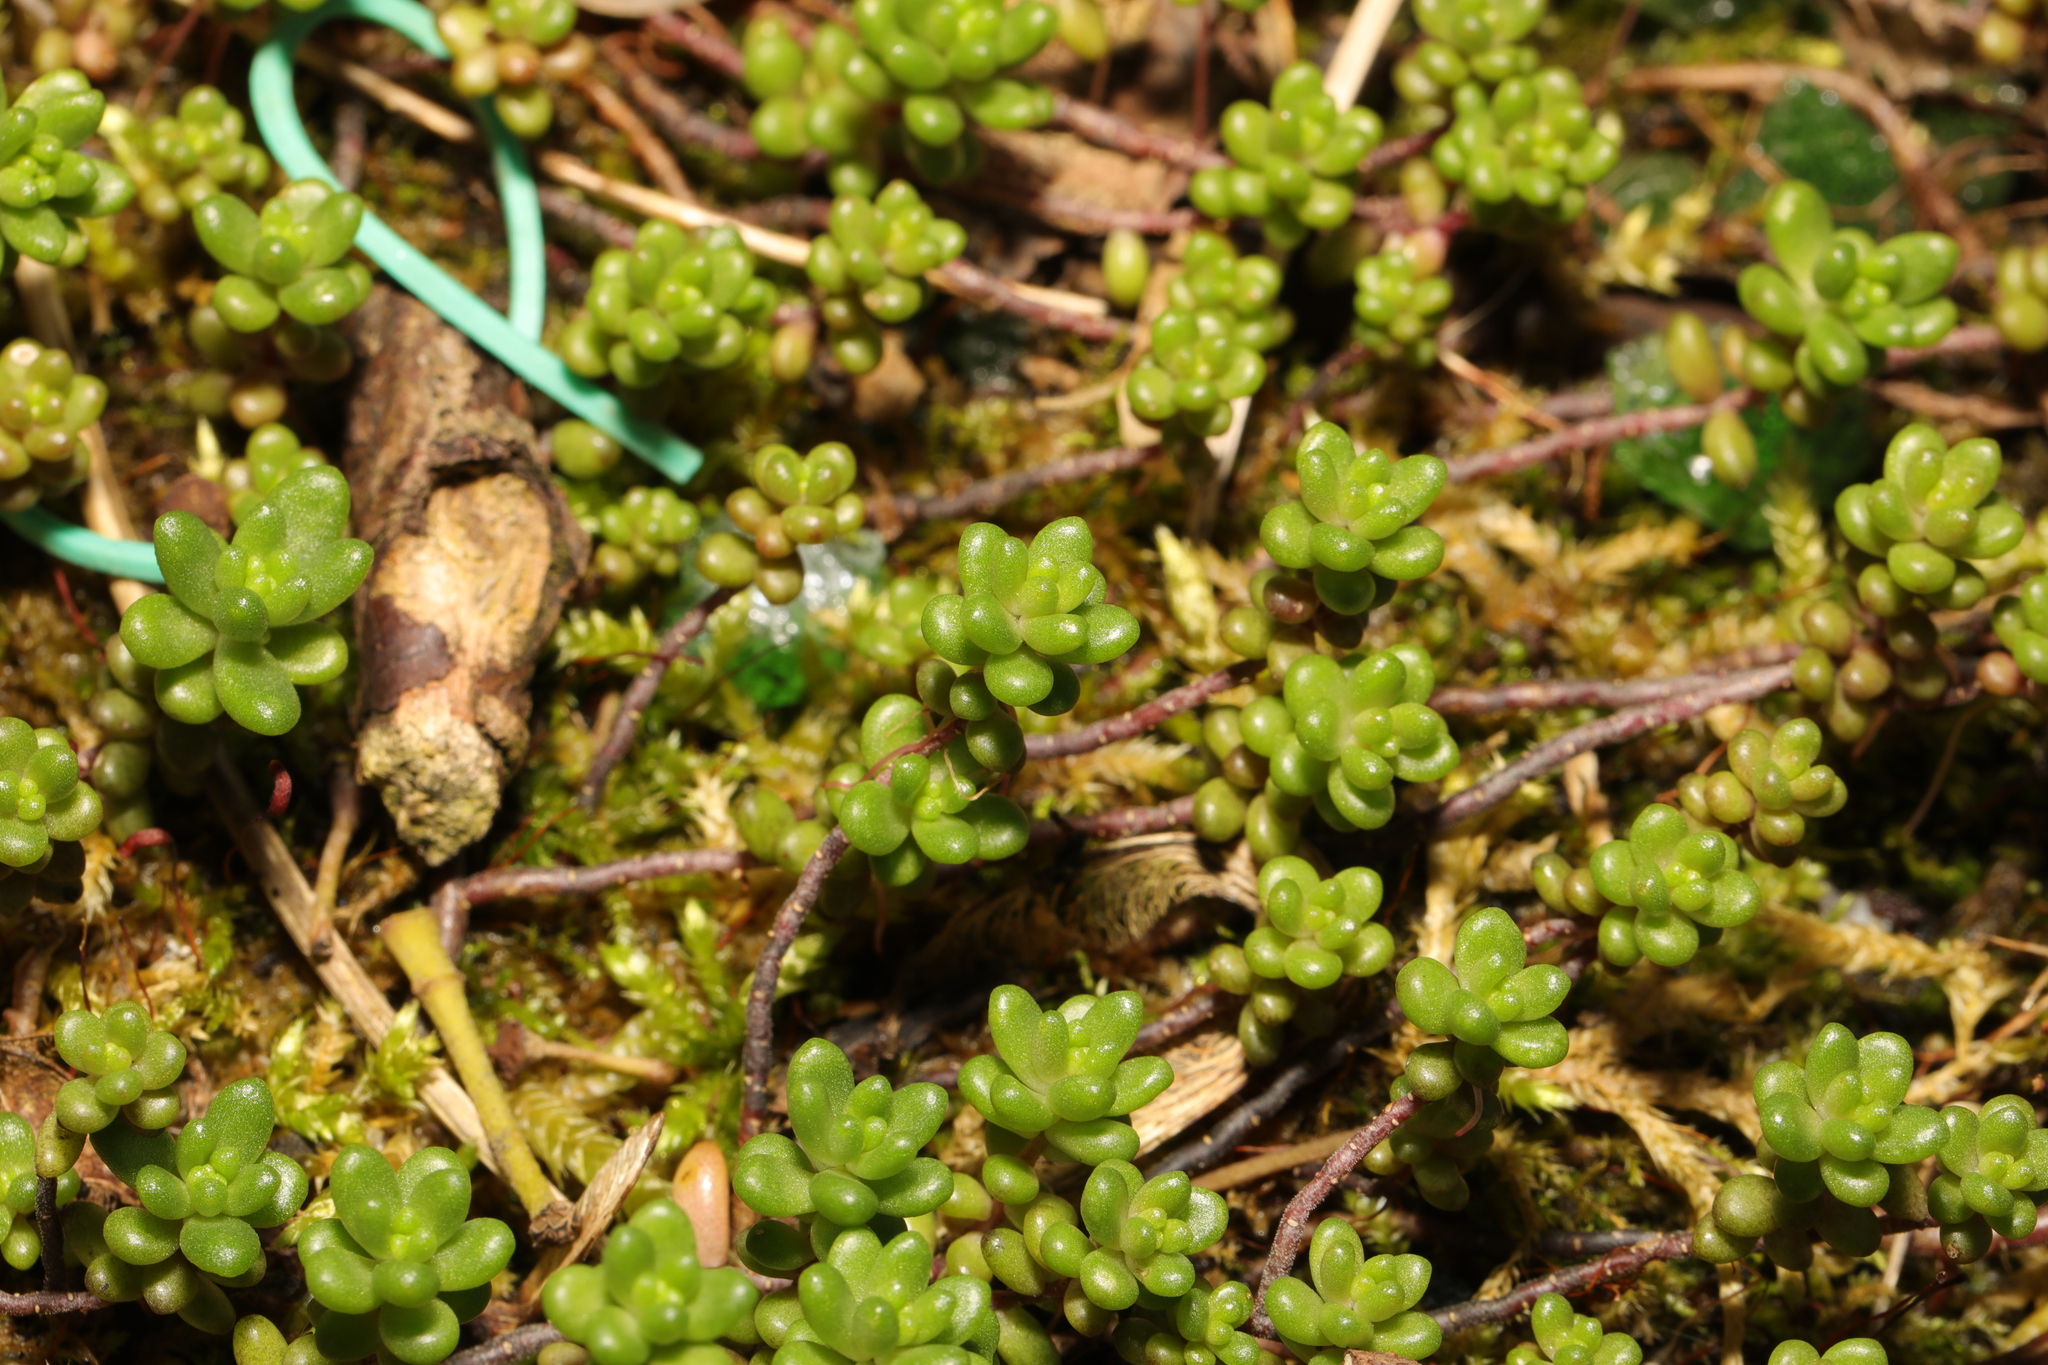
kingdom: Plantae
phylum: Tracheophyta
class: Magnoliopsida
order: Saxifragales
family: Crassulaceae
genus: Sedum
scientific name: Sedum album
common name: White stonecrop
